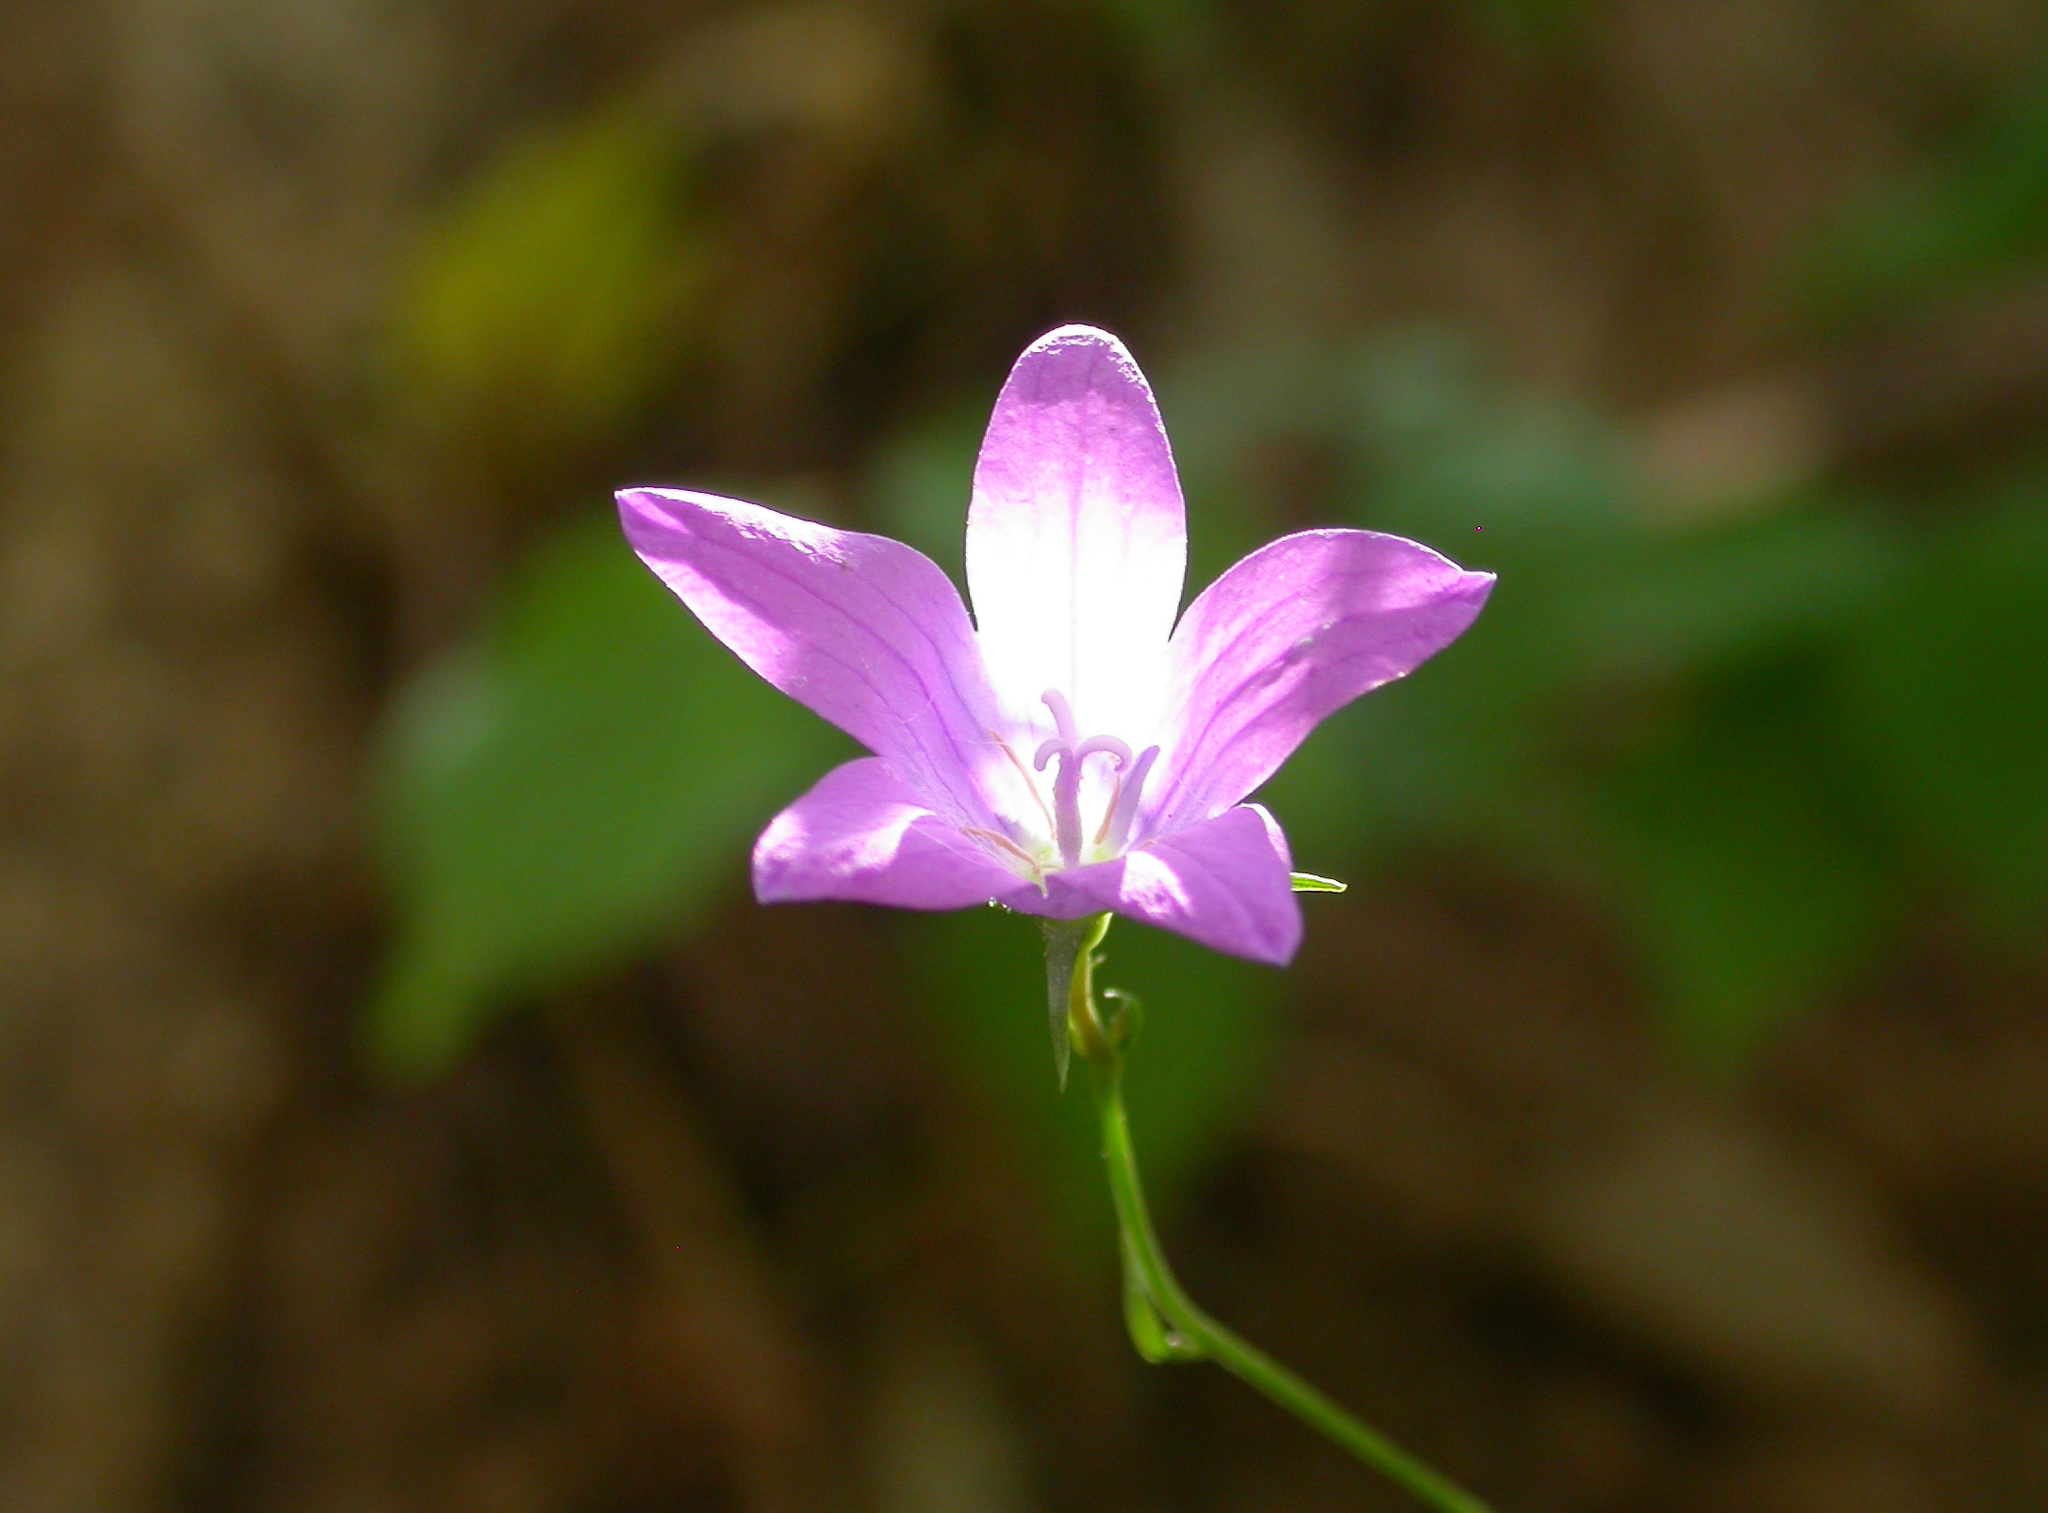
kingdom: Plantae
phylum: Tracheophyta
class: Magnoliopsida
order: Asterales
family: Campanulaceae
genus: Campanula
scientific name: Campanula patula
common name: Spreading bellflower
